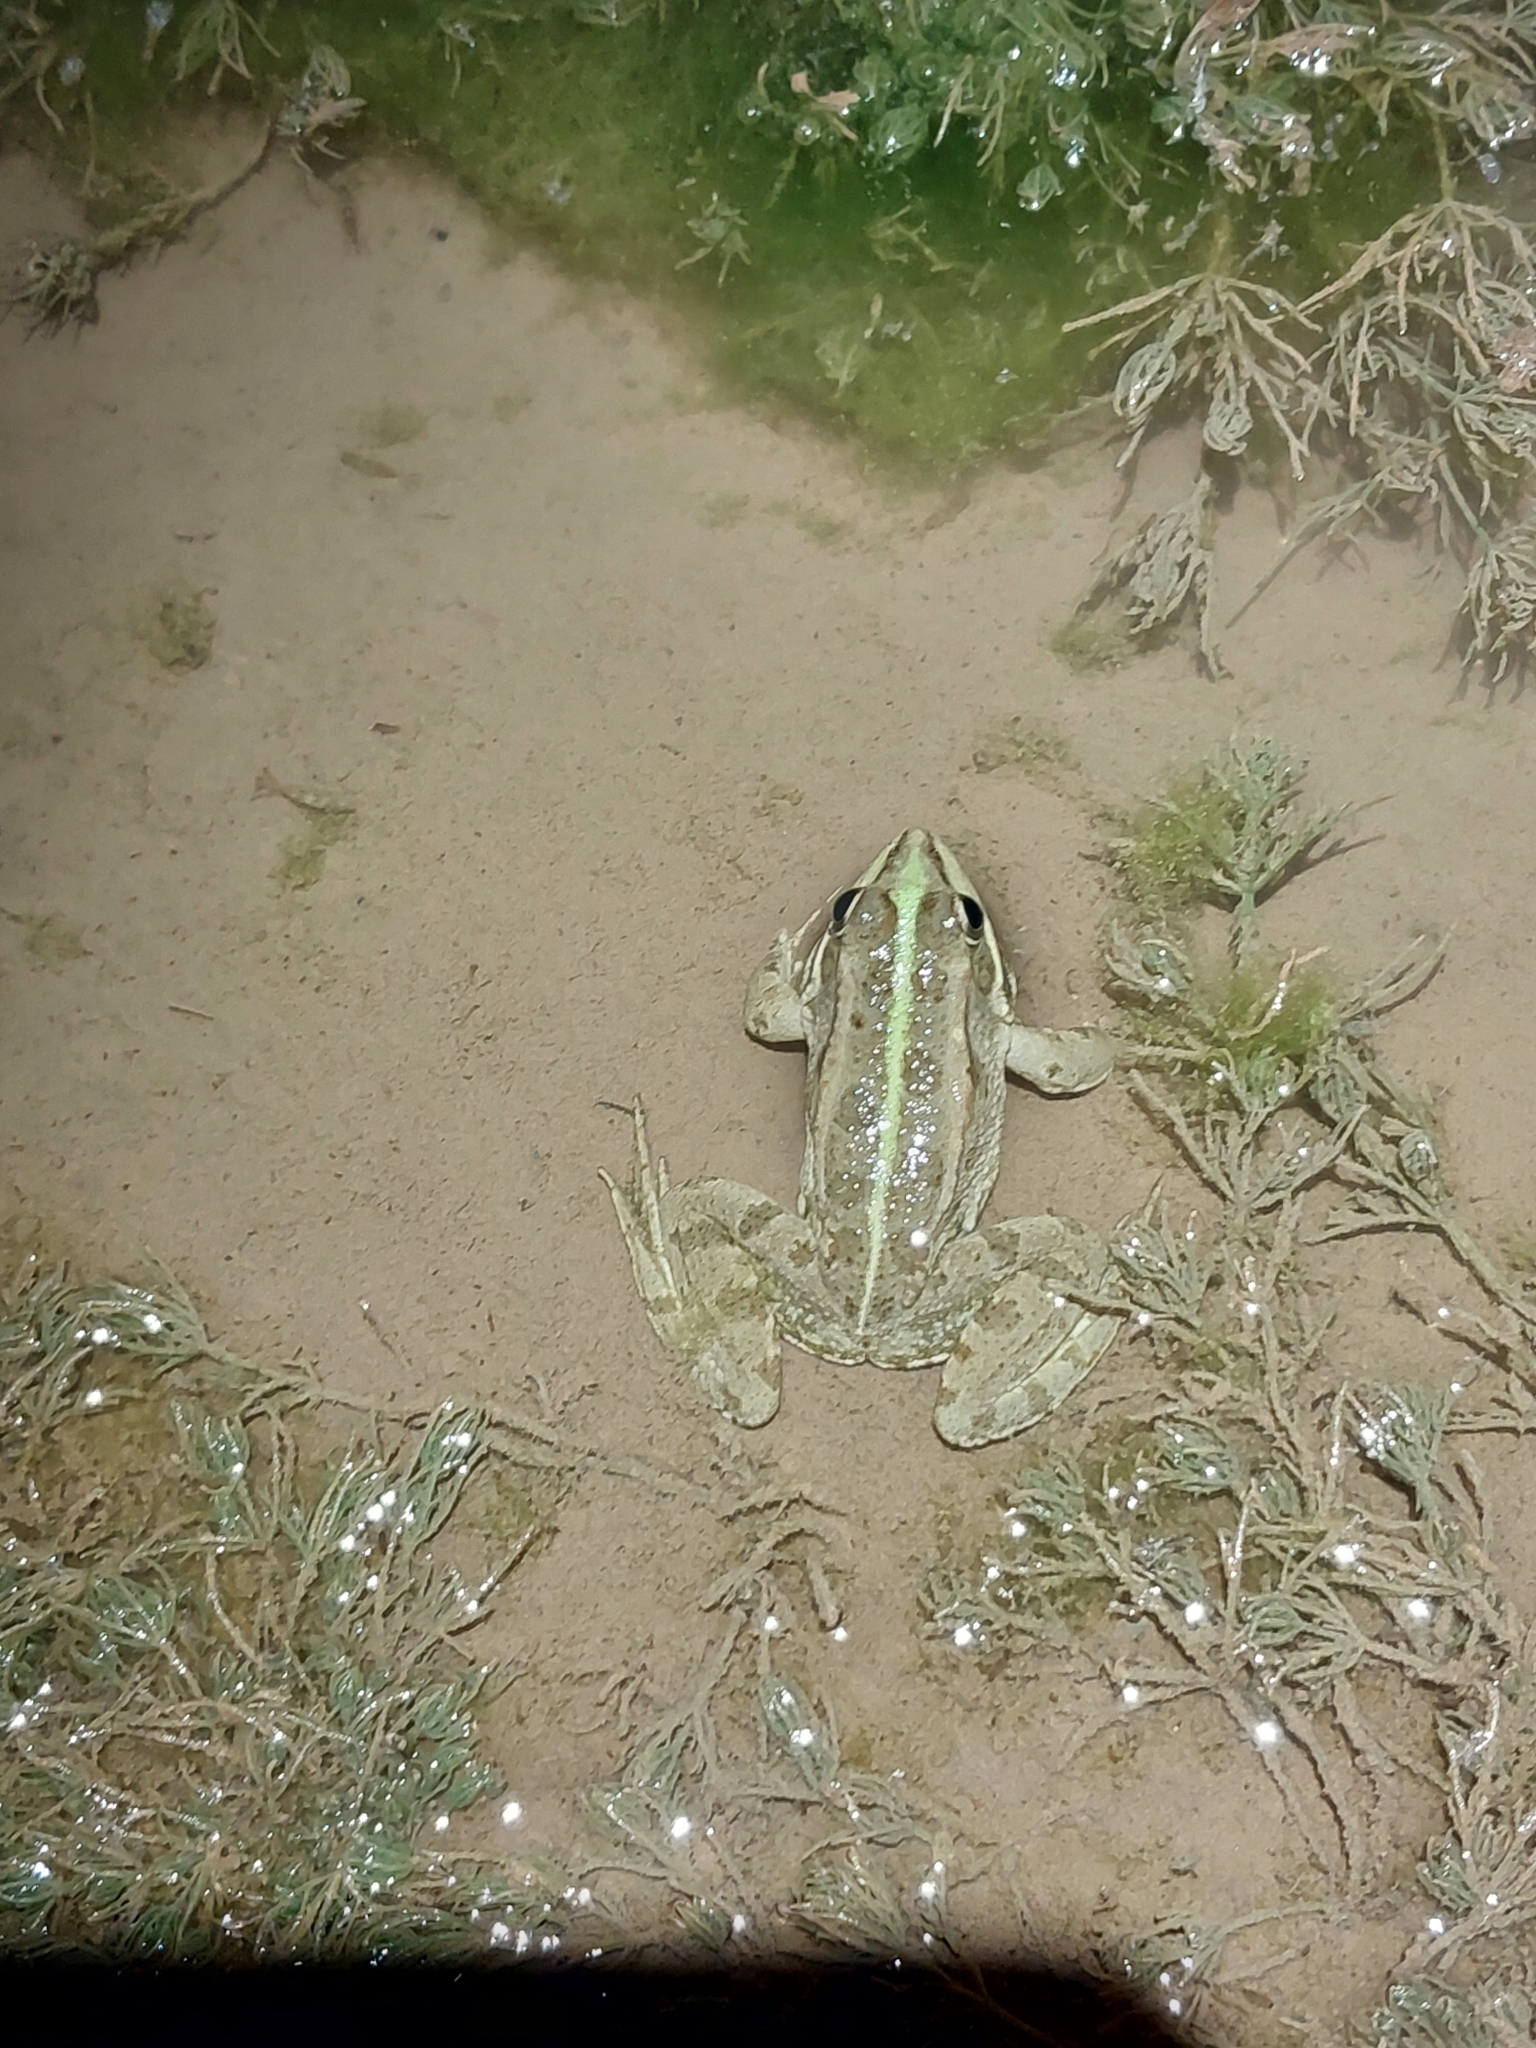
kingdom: Animalia
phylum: Chordata
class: Amphibia
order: Anura
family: Ranidae
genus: Pelophylax
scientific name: Pelophylax saharicus
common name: Sahara frog
